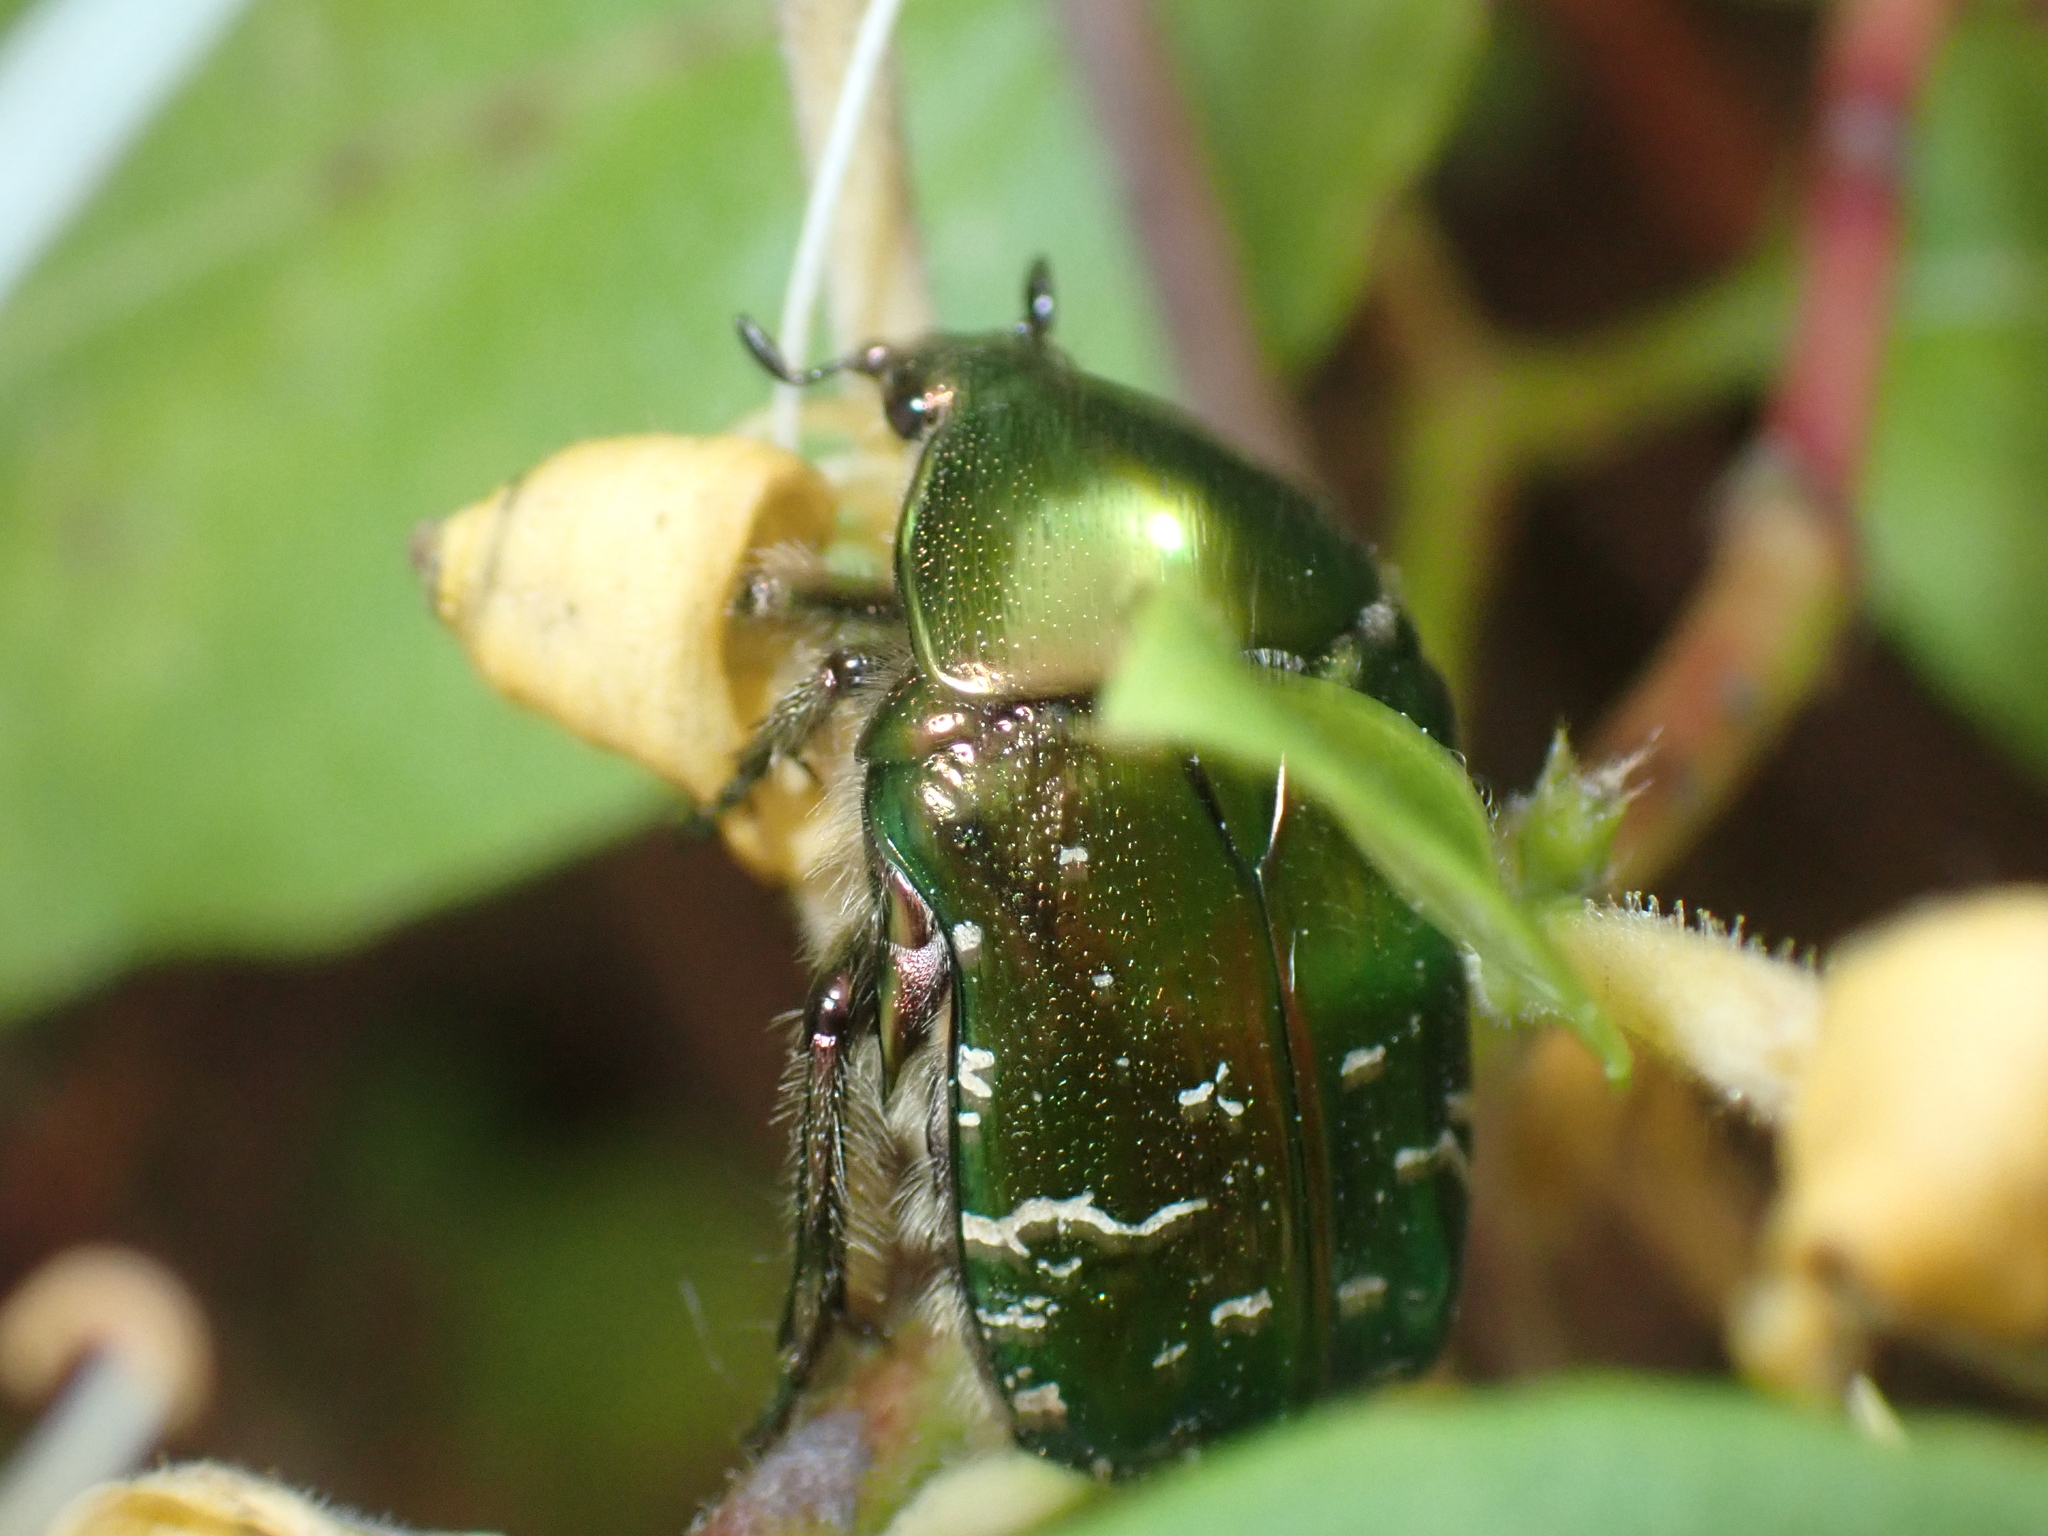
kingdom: Animalia
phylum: Arthropoda
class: Insecta
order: Coleoptera
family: Scarabaeidae
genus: Cetonia
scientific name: Cetonia aurata
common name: Rose chafer
